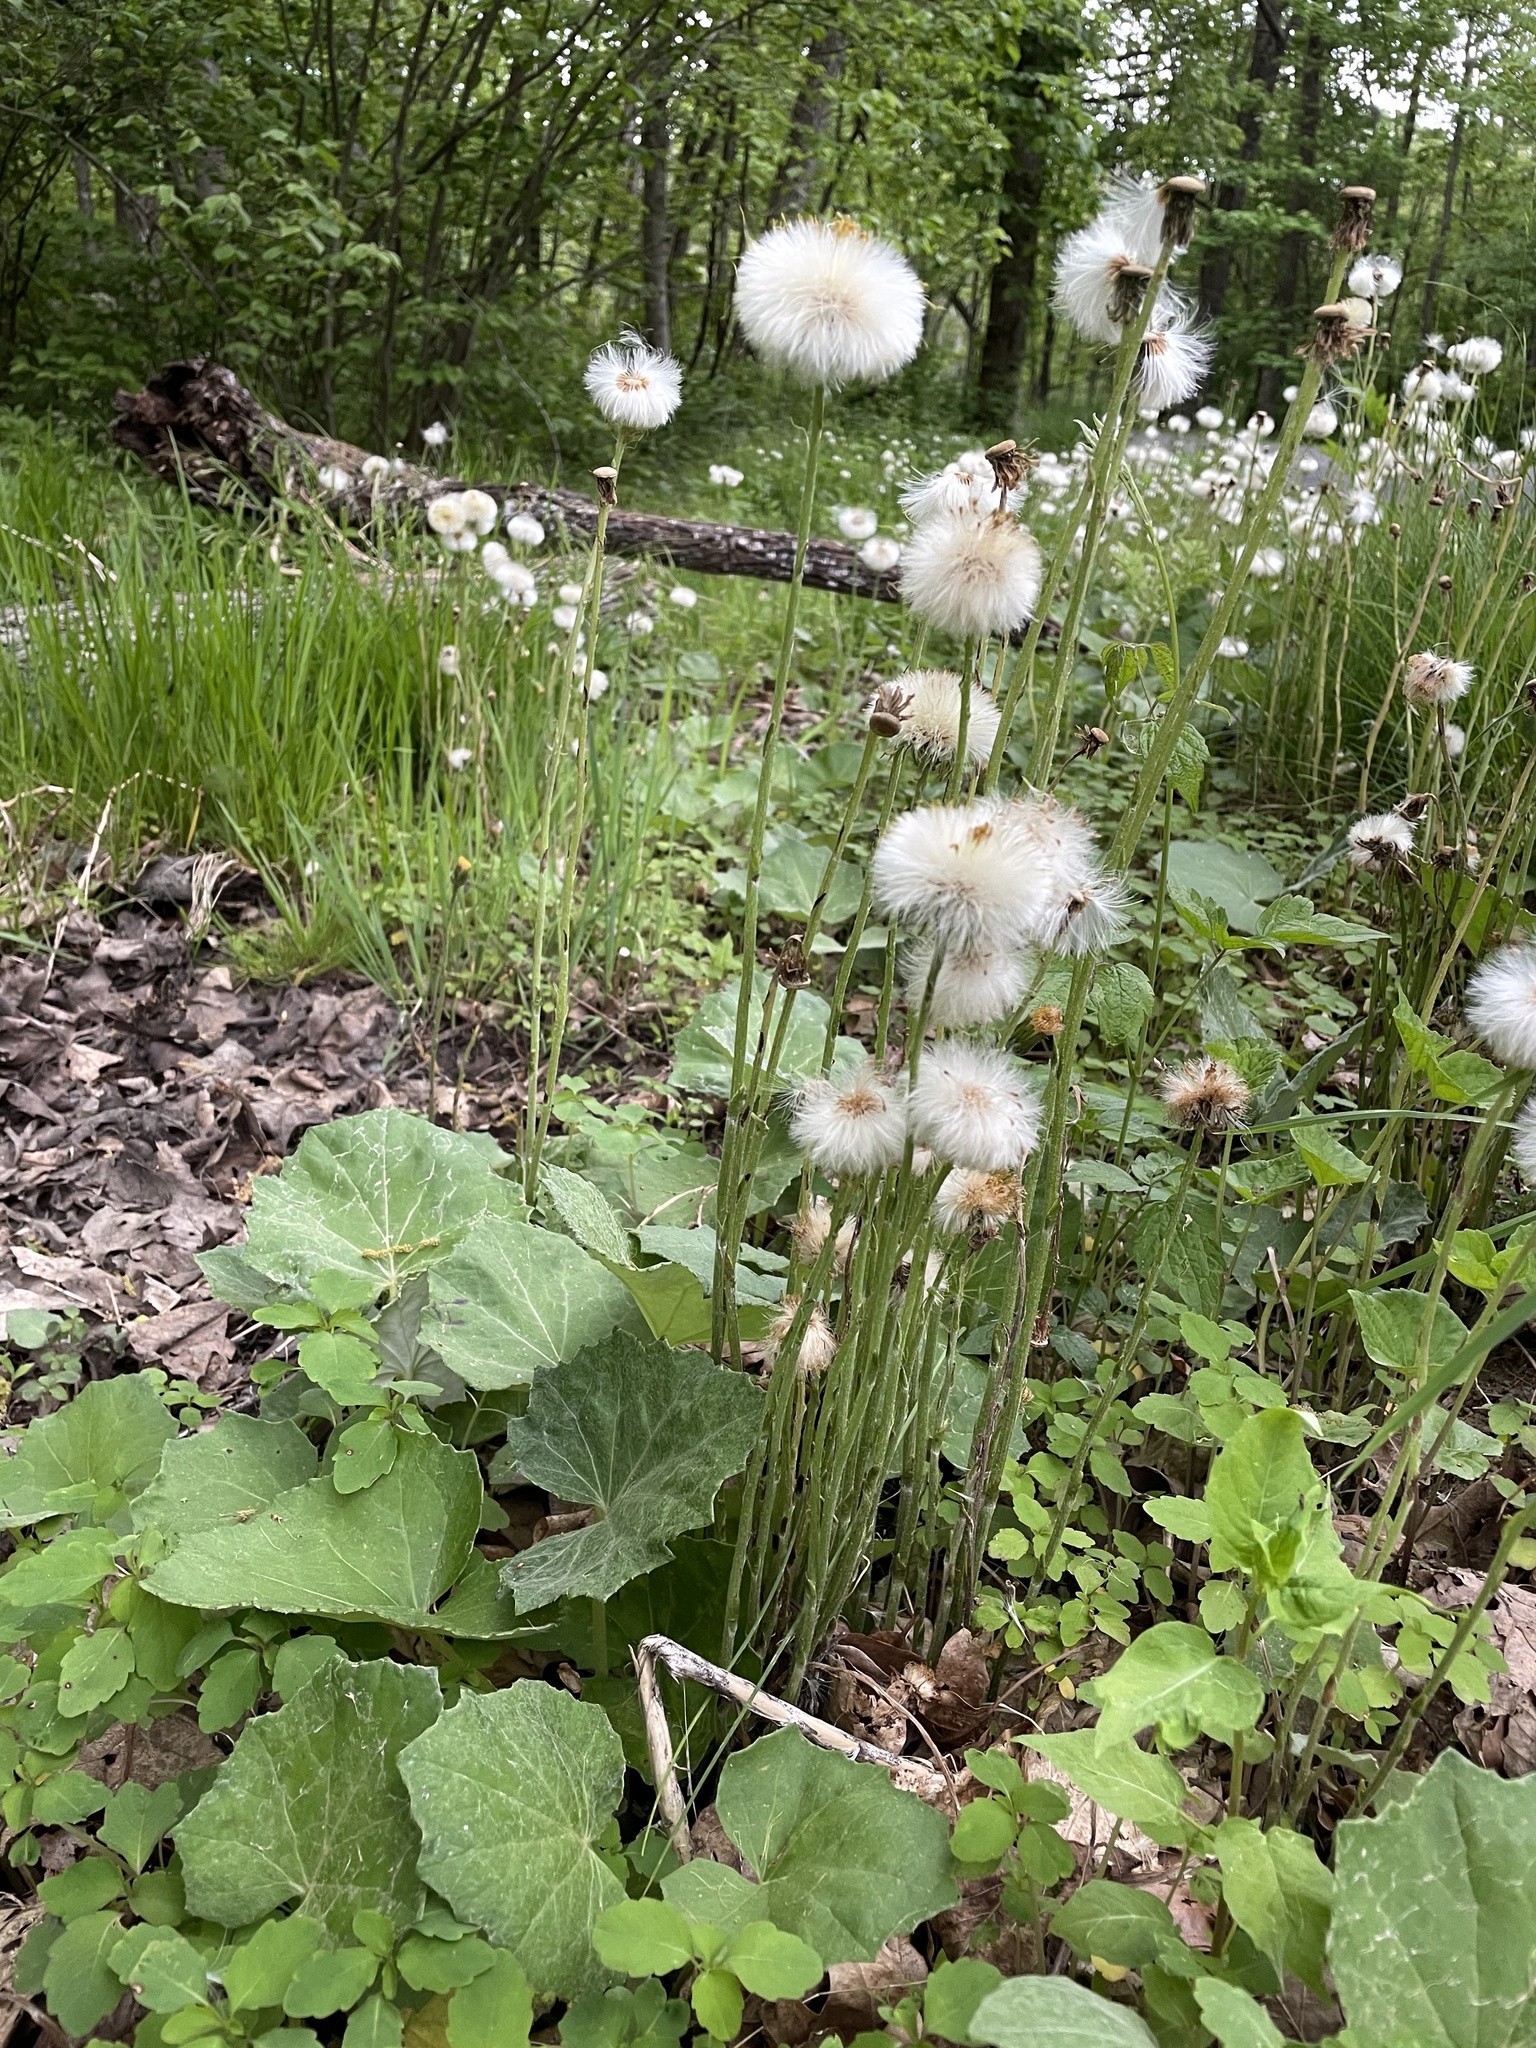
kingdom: Plantae
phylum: Tracheophyta
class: Magnoliopsida
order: Asterales
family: Asteraceae
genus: Tussilago
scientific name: Tussilago farfara
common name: Coltsfoot
